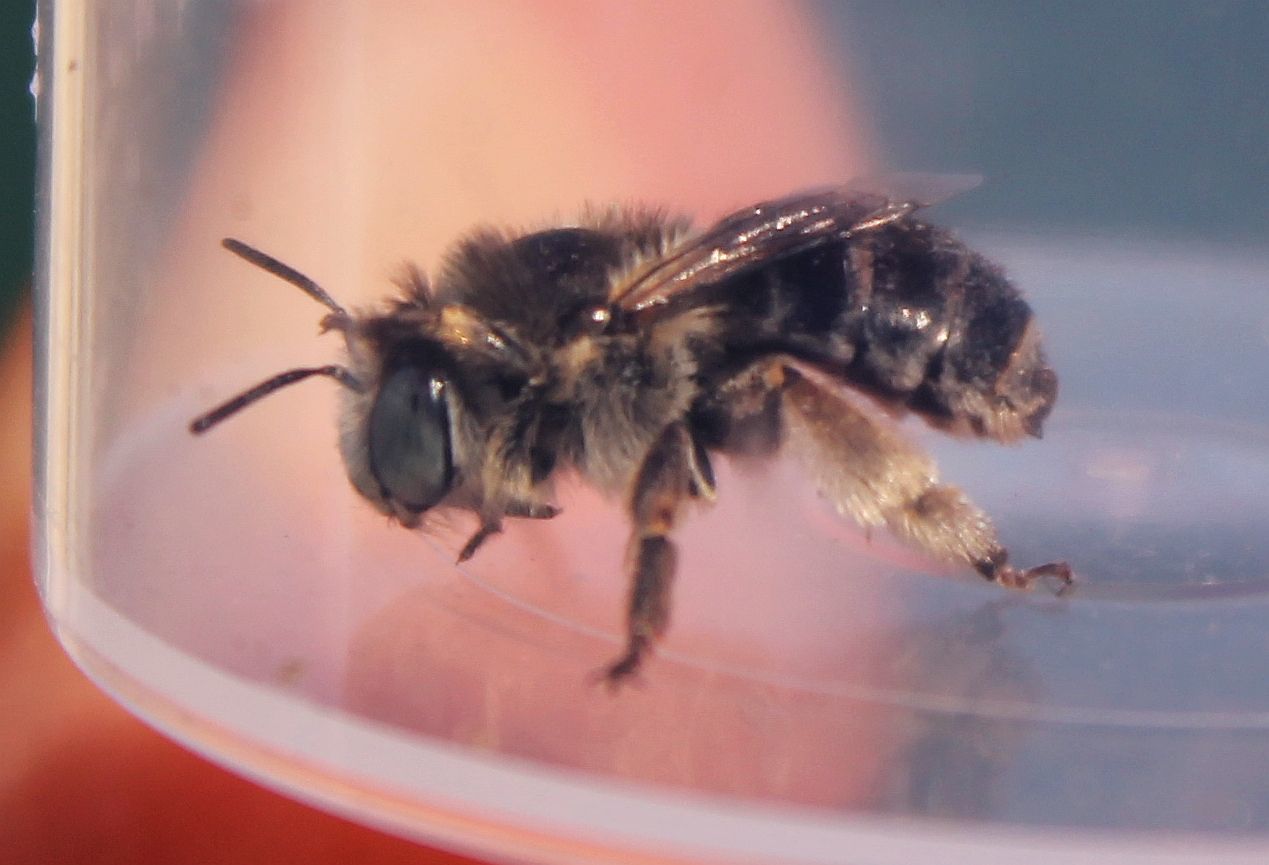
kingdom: Animalia
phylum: Arthropoda
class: Insecta
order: Hymenoptera
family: Apidae
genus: Anthophora
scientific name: Anthophora bimaculata
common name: Green-eyed flower bee
